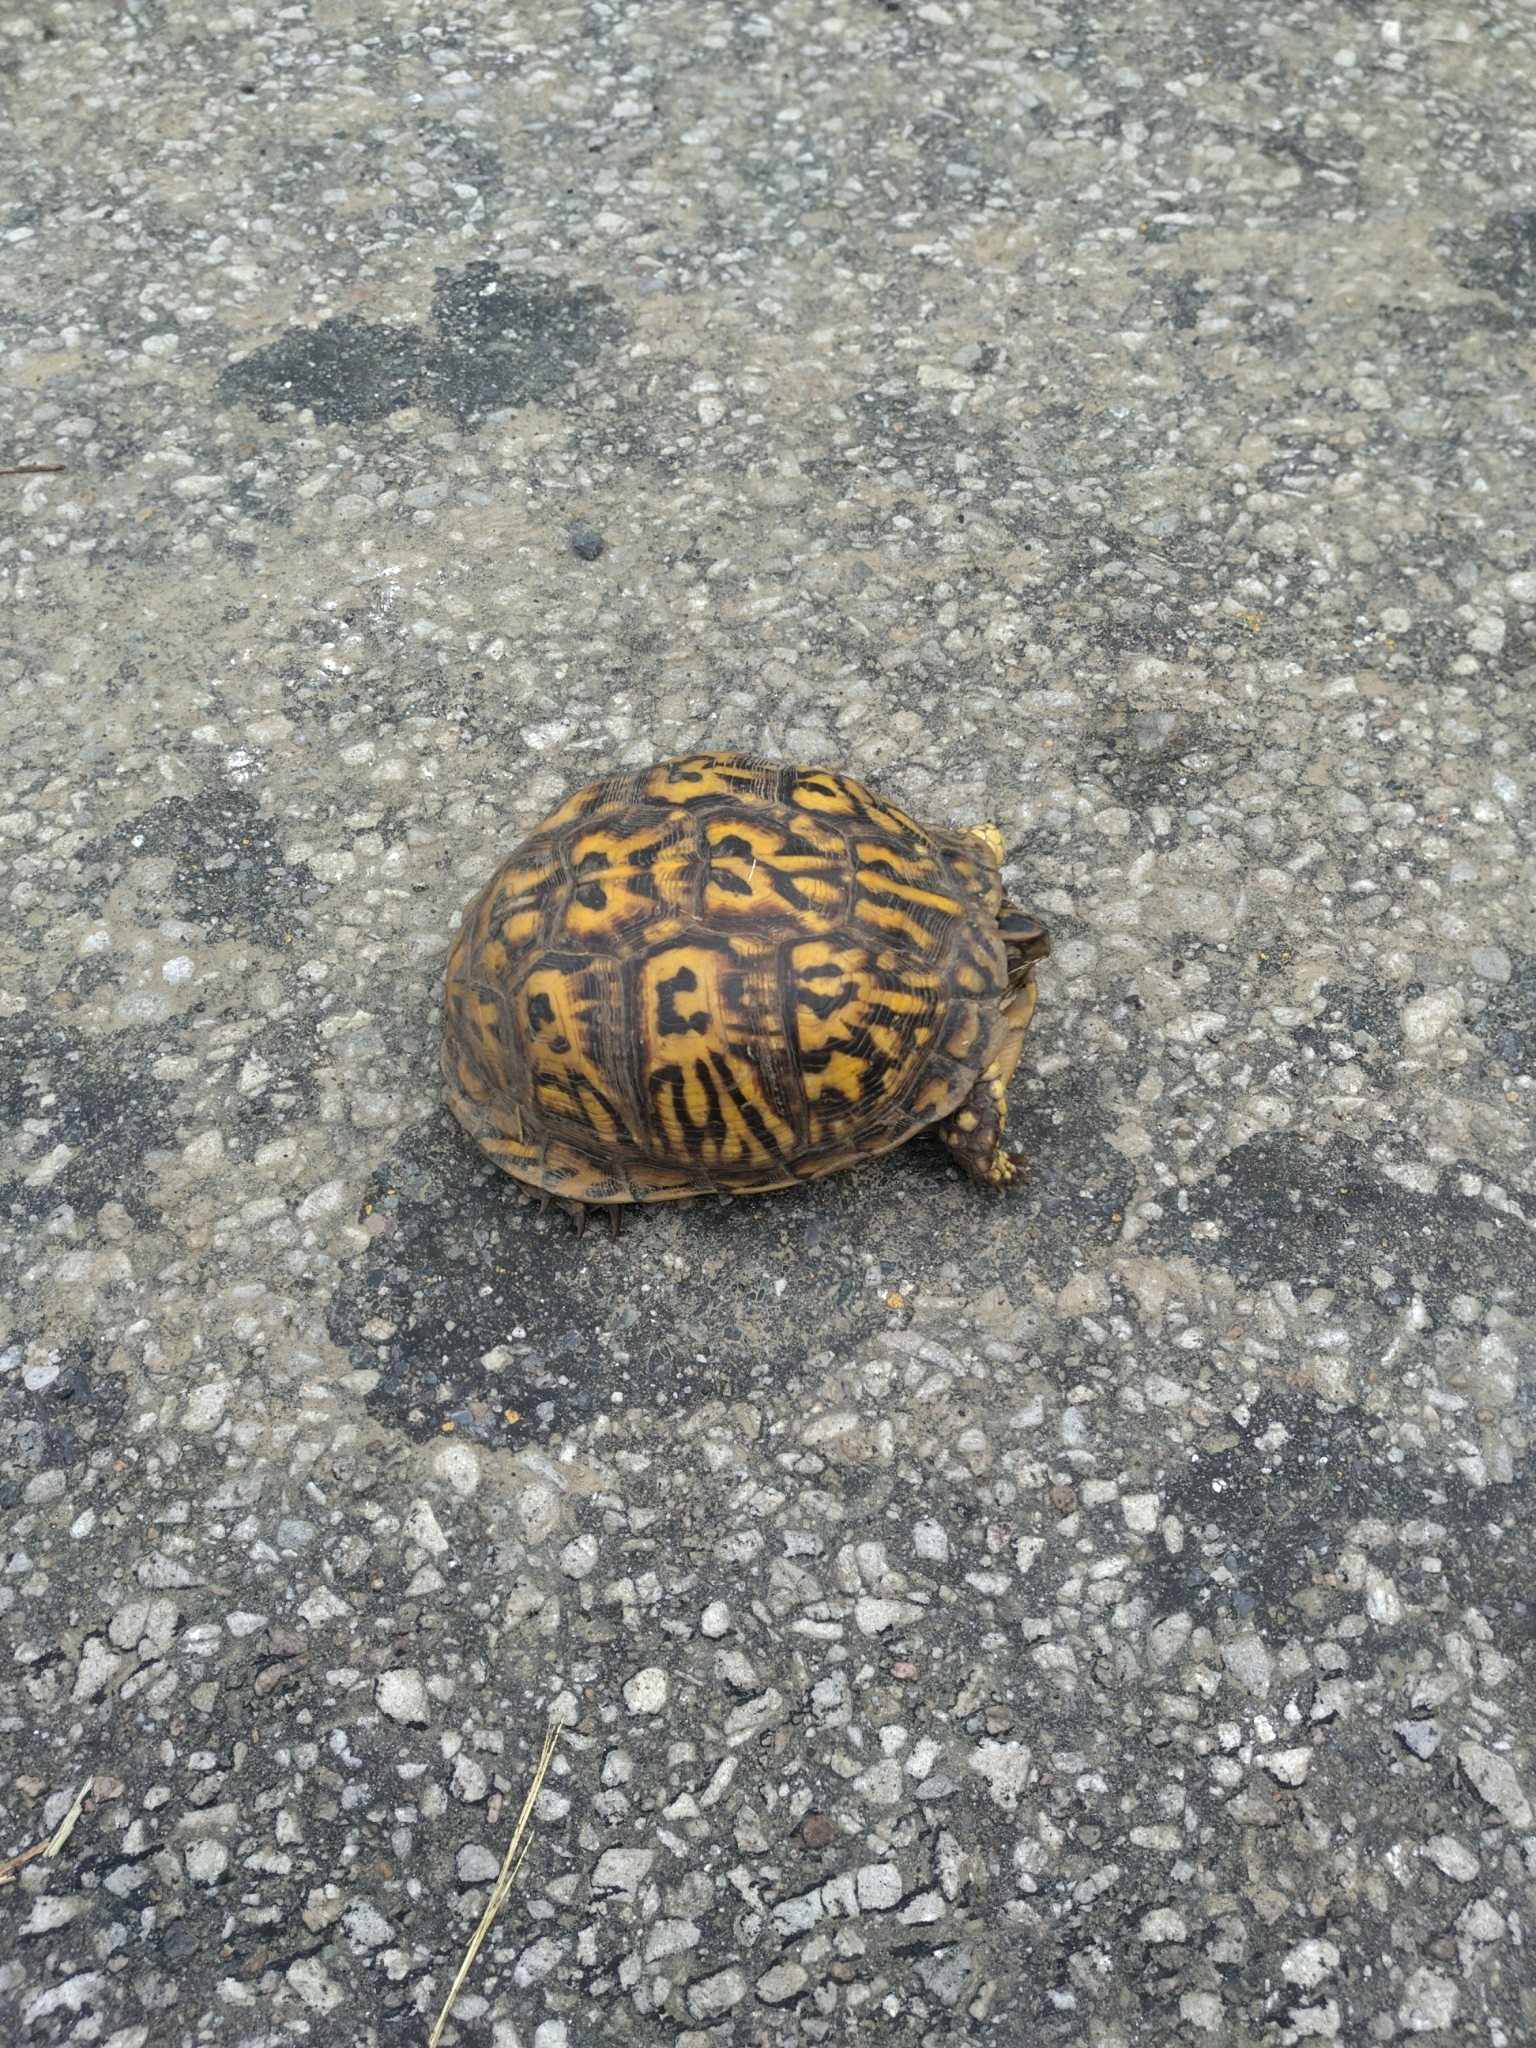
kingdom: Animalia
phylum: Chordata
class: Testudines
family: Emydidae
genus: Terrapene
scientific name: Terrapene carolina
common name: Common box turtle
